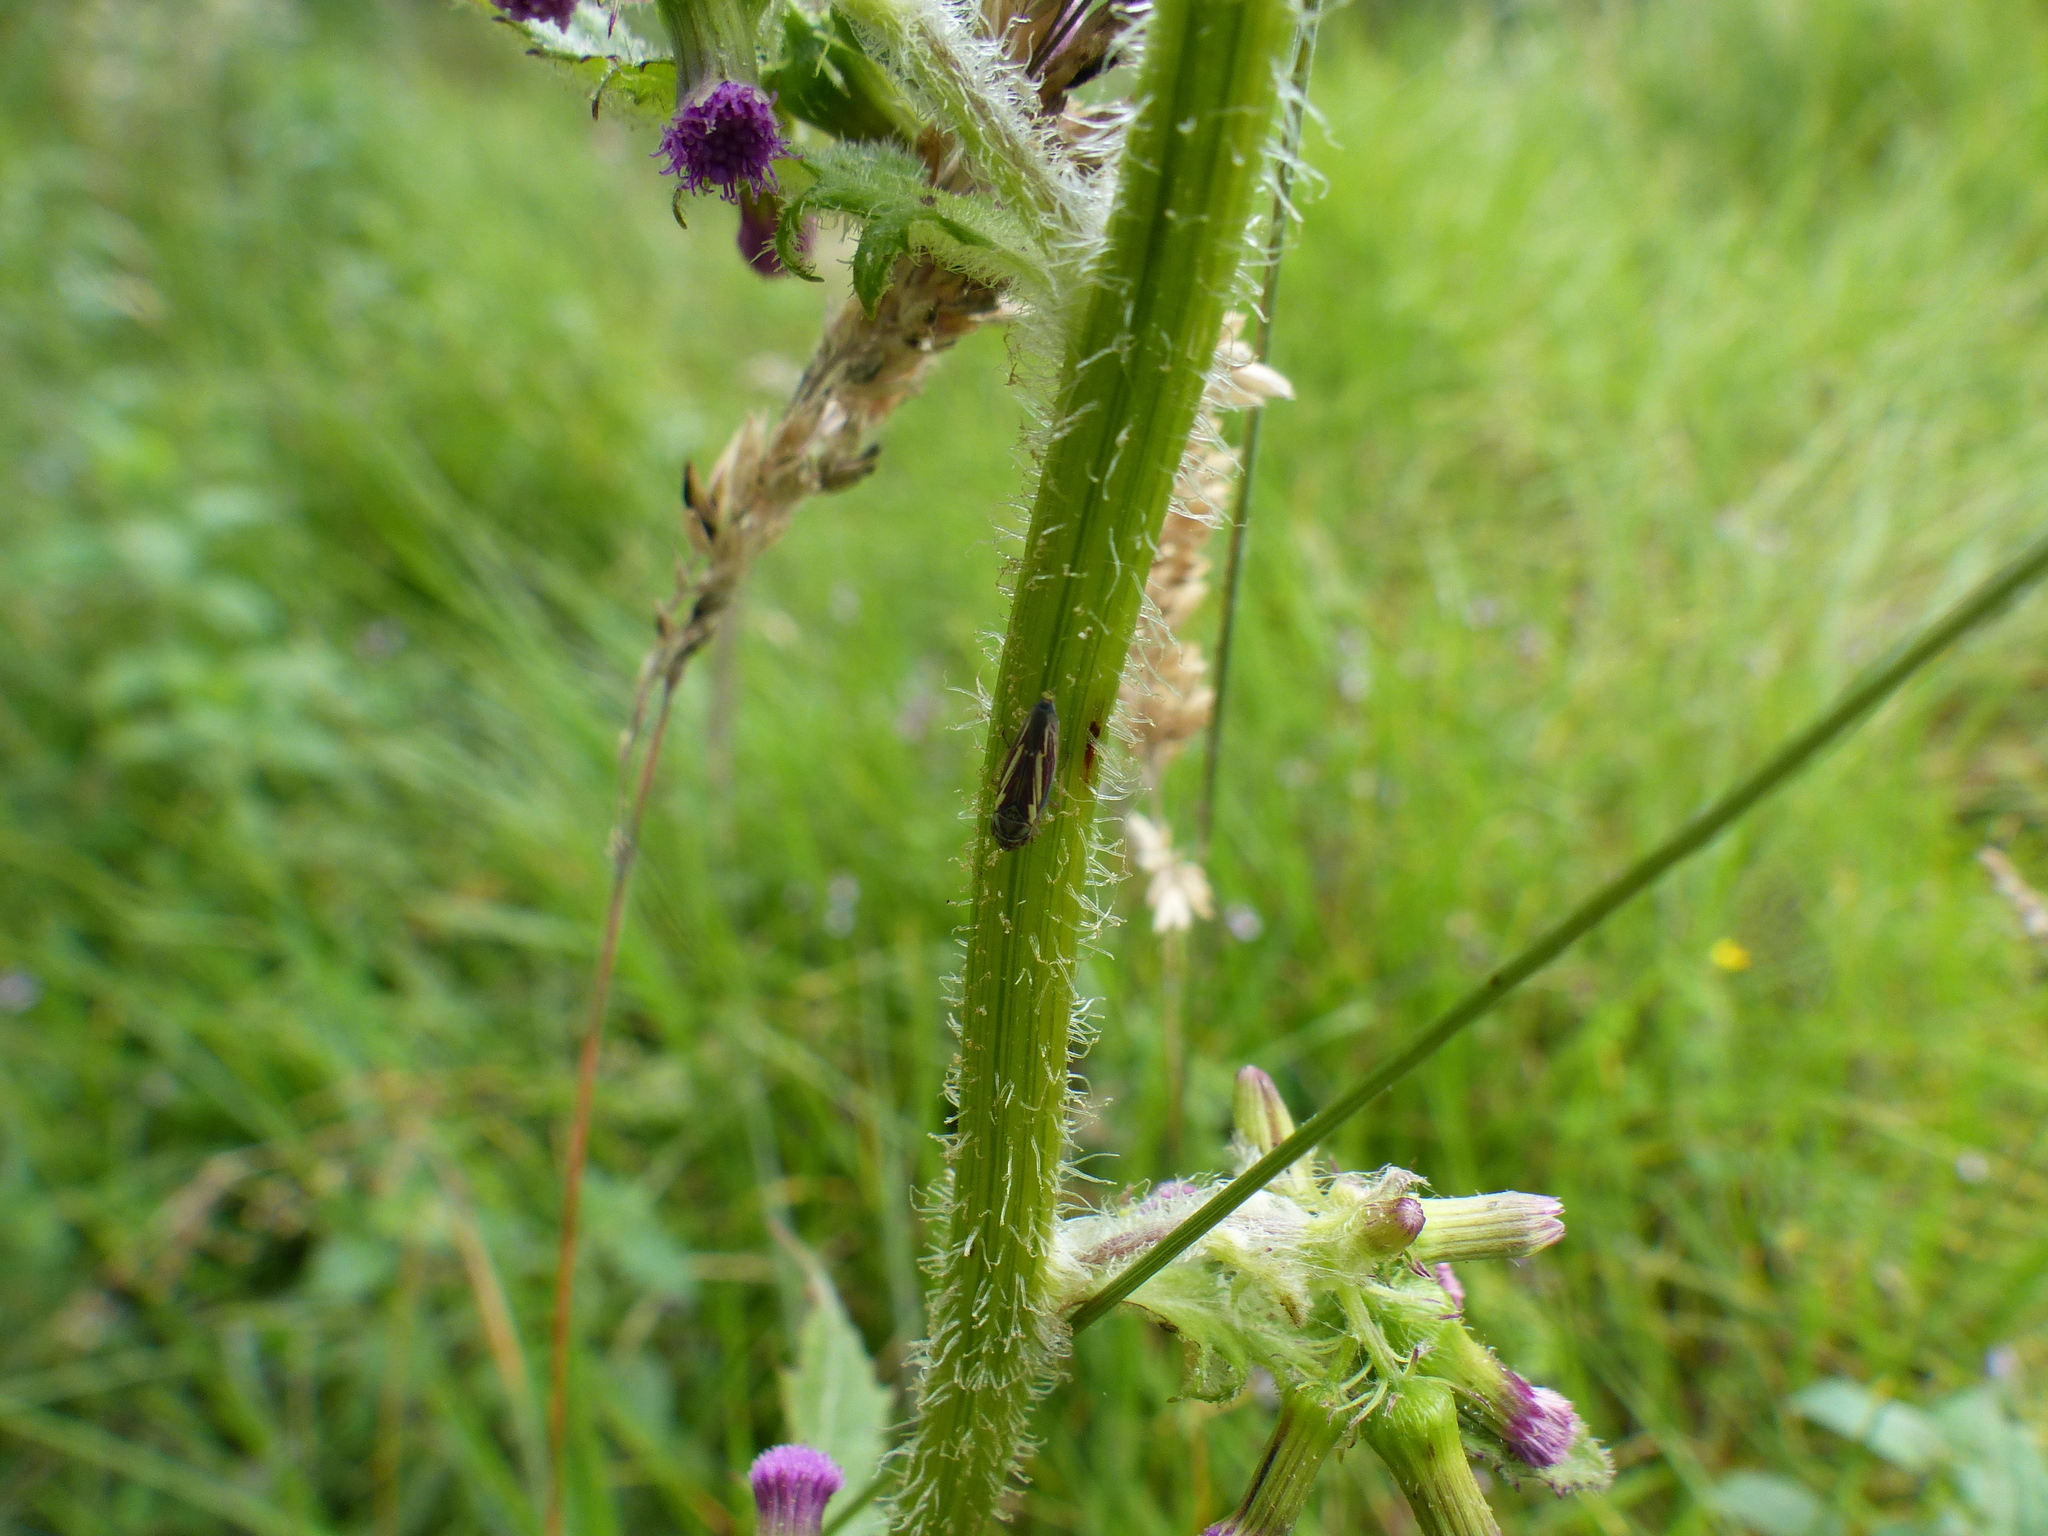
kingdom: Animalia
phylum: Arthropoda
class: Insecta
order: Hemiptera
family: Cicadellidae
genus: Borogonalia
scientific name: Borogonalia impressifrons
